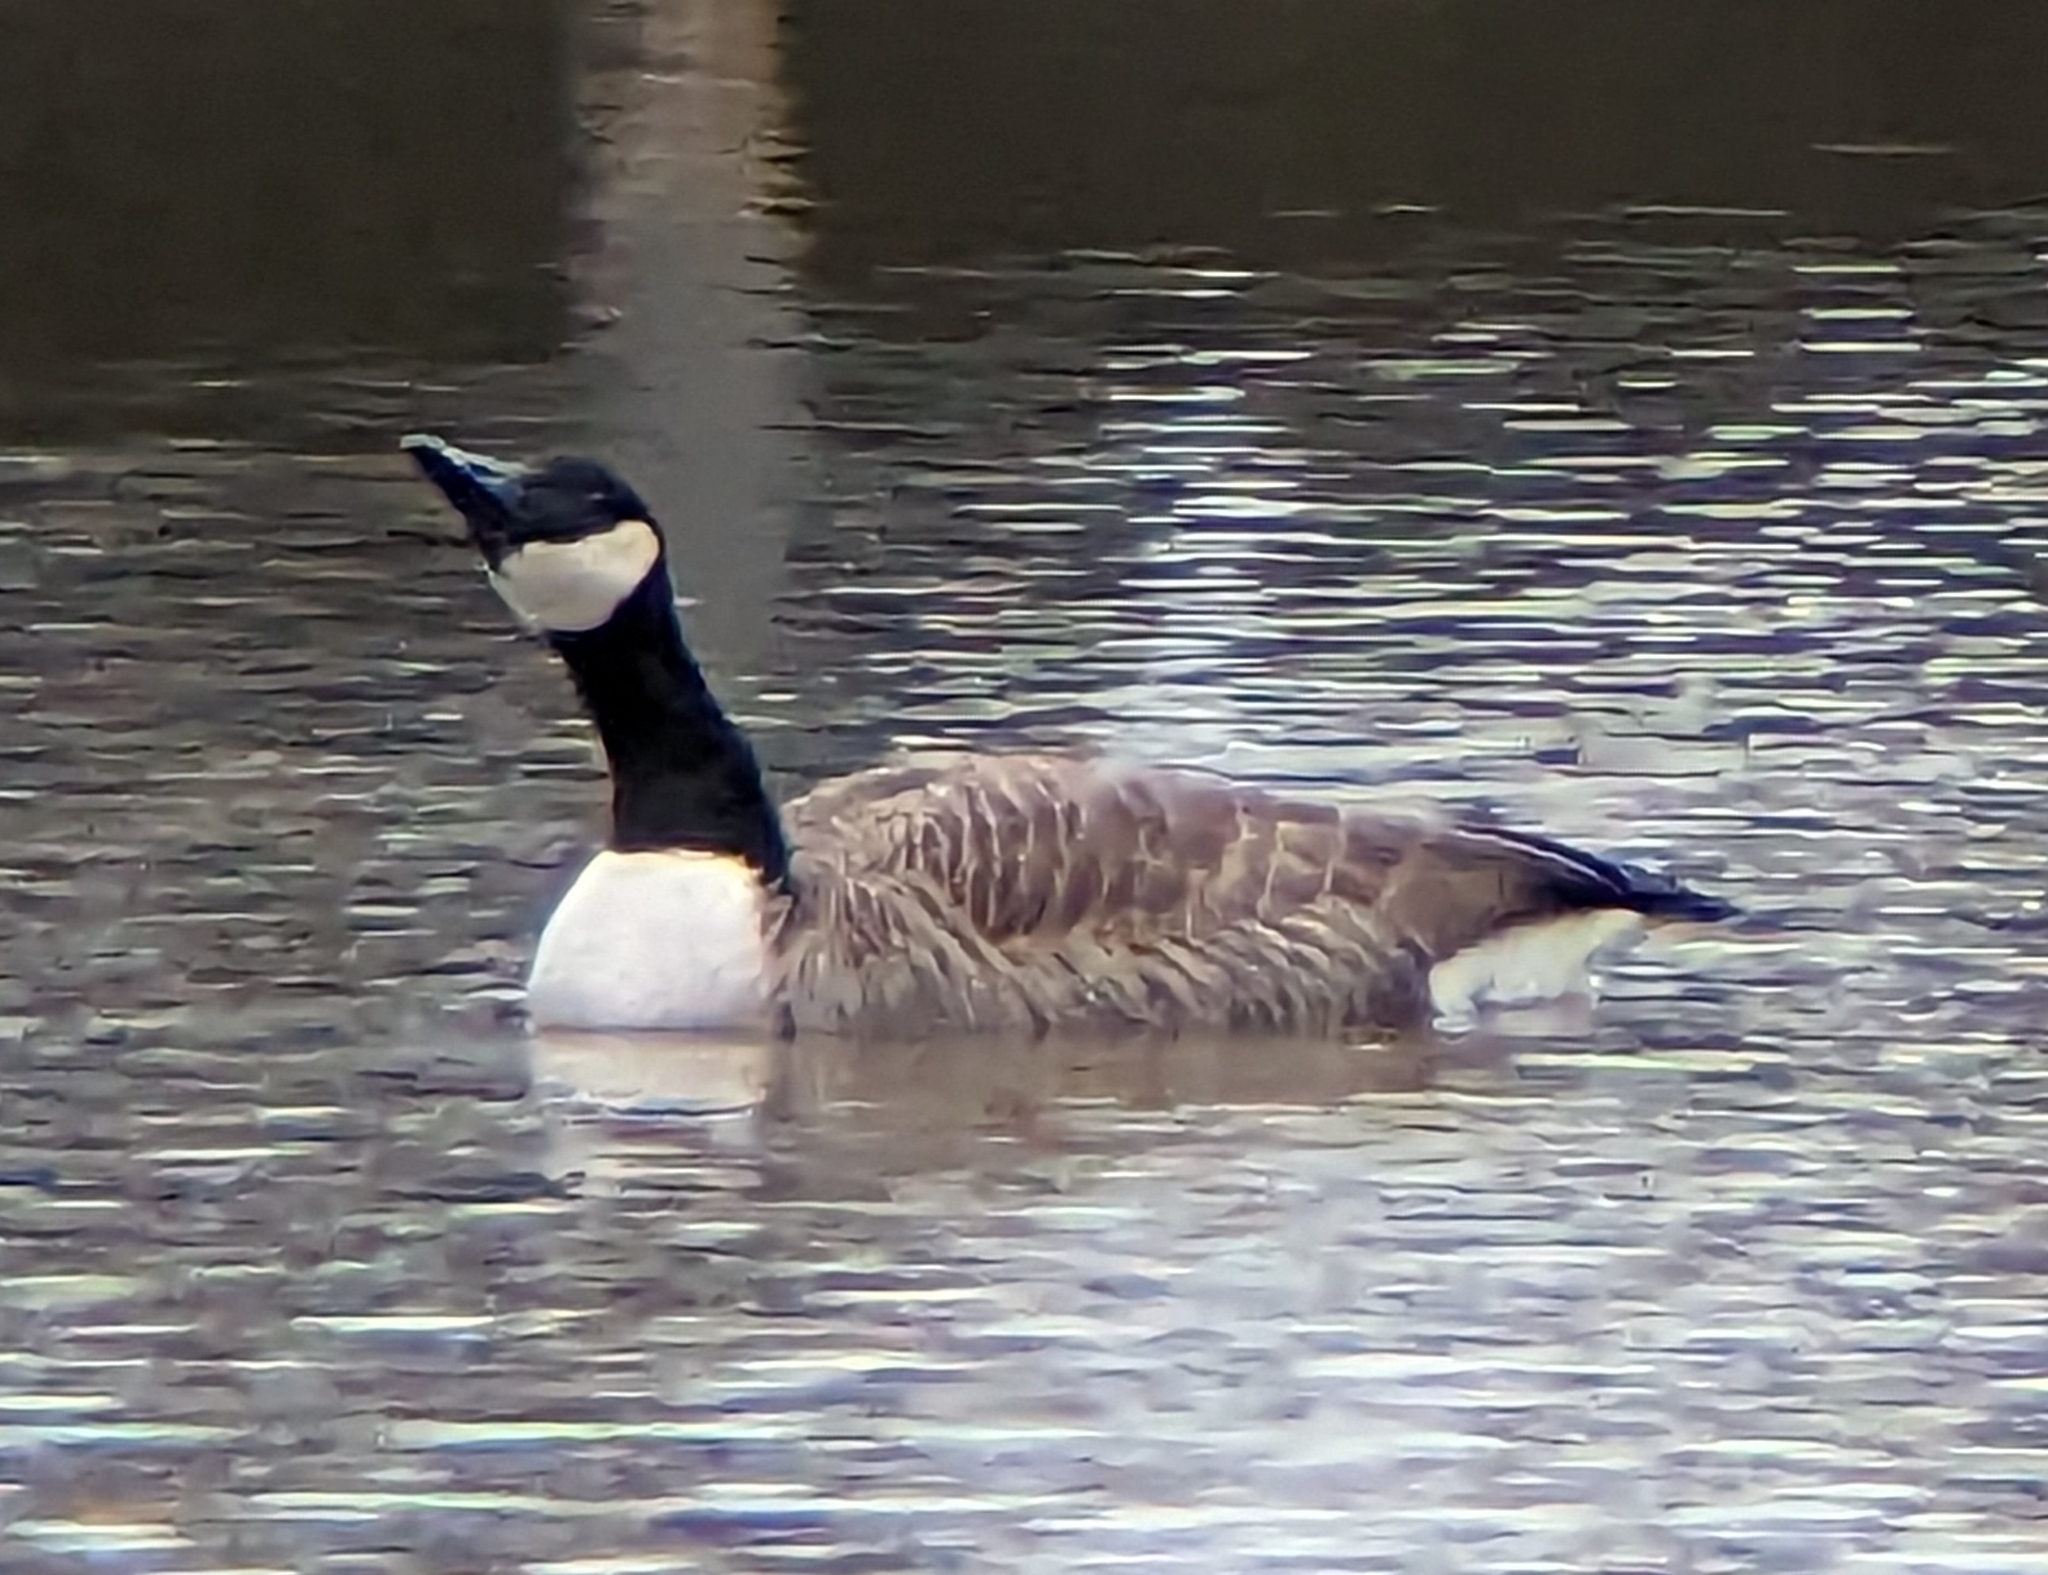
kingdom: Animalia
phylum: Chordata
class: Aves
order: Anseriformes
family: Anatidae
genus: Branta
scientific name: Branta canadensis
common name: Canada goose
